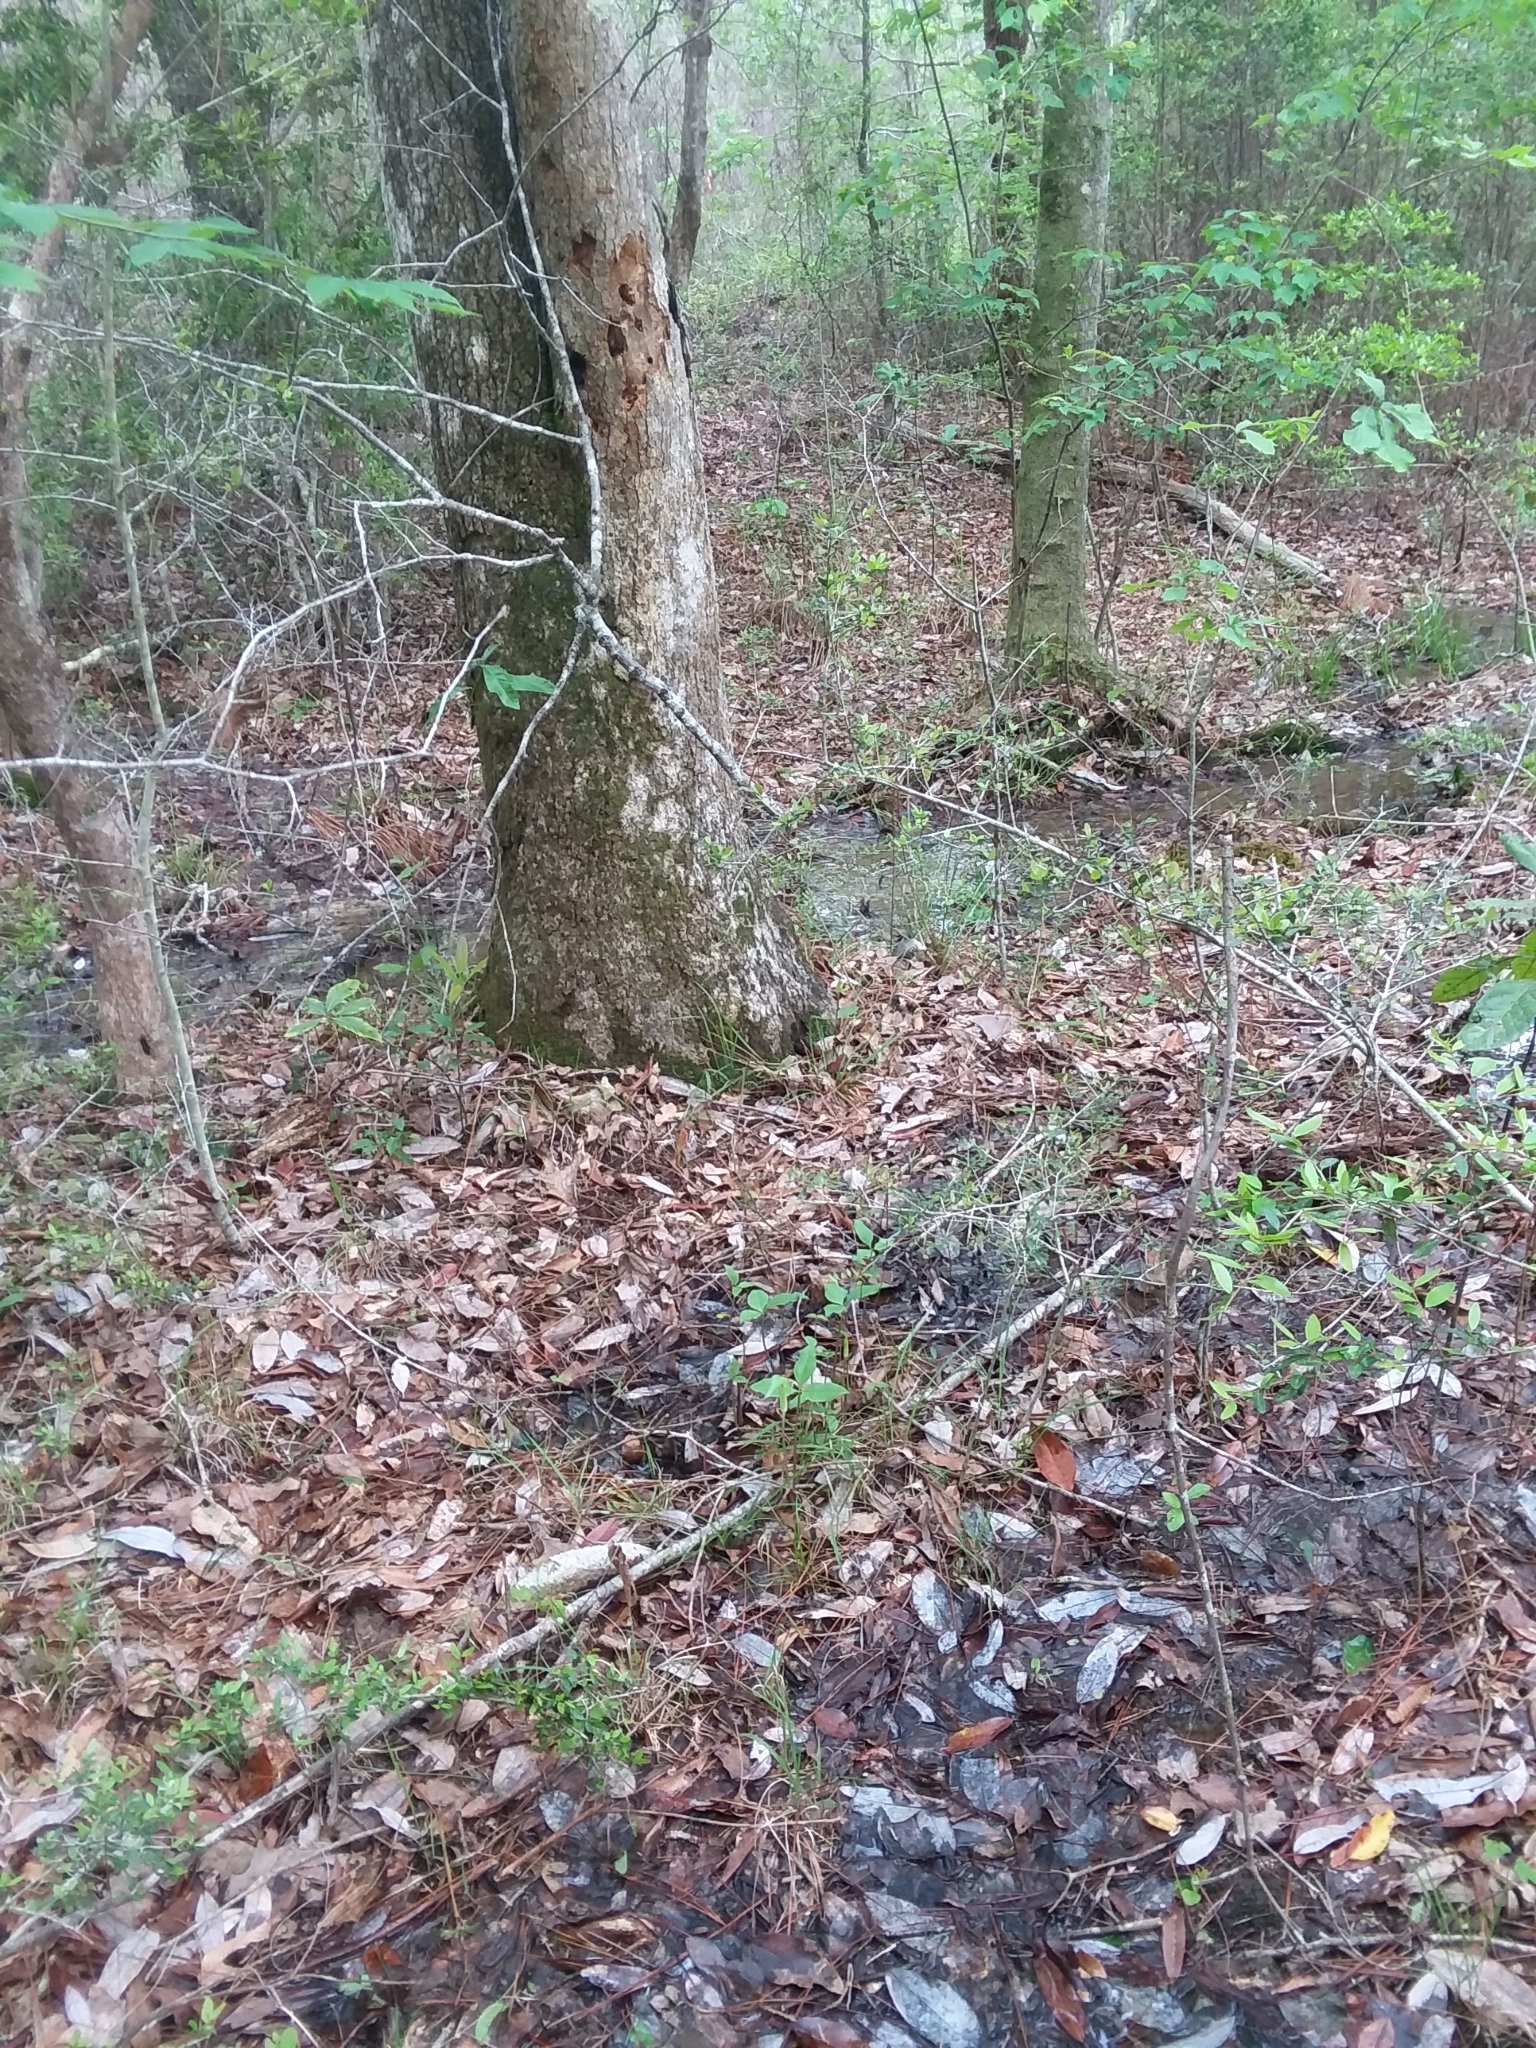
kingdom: Plantae
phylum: Tracheophyta
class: Liliopsida
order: Alismatales
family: Araceae
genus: Arisaema
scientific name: Arisaema acuminatum
